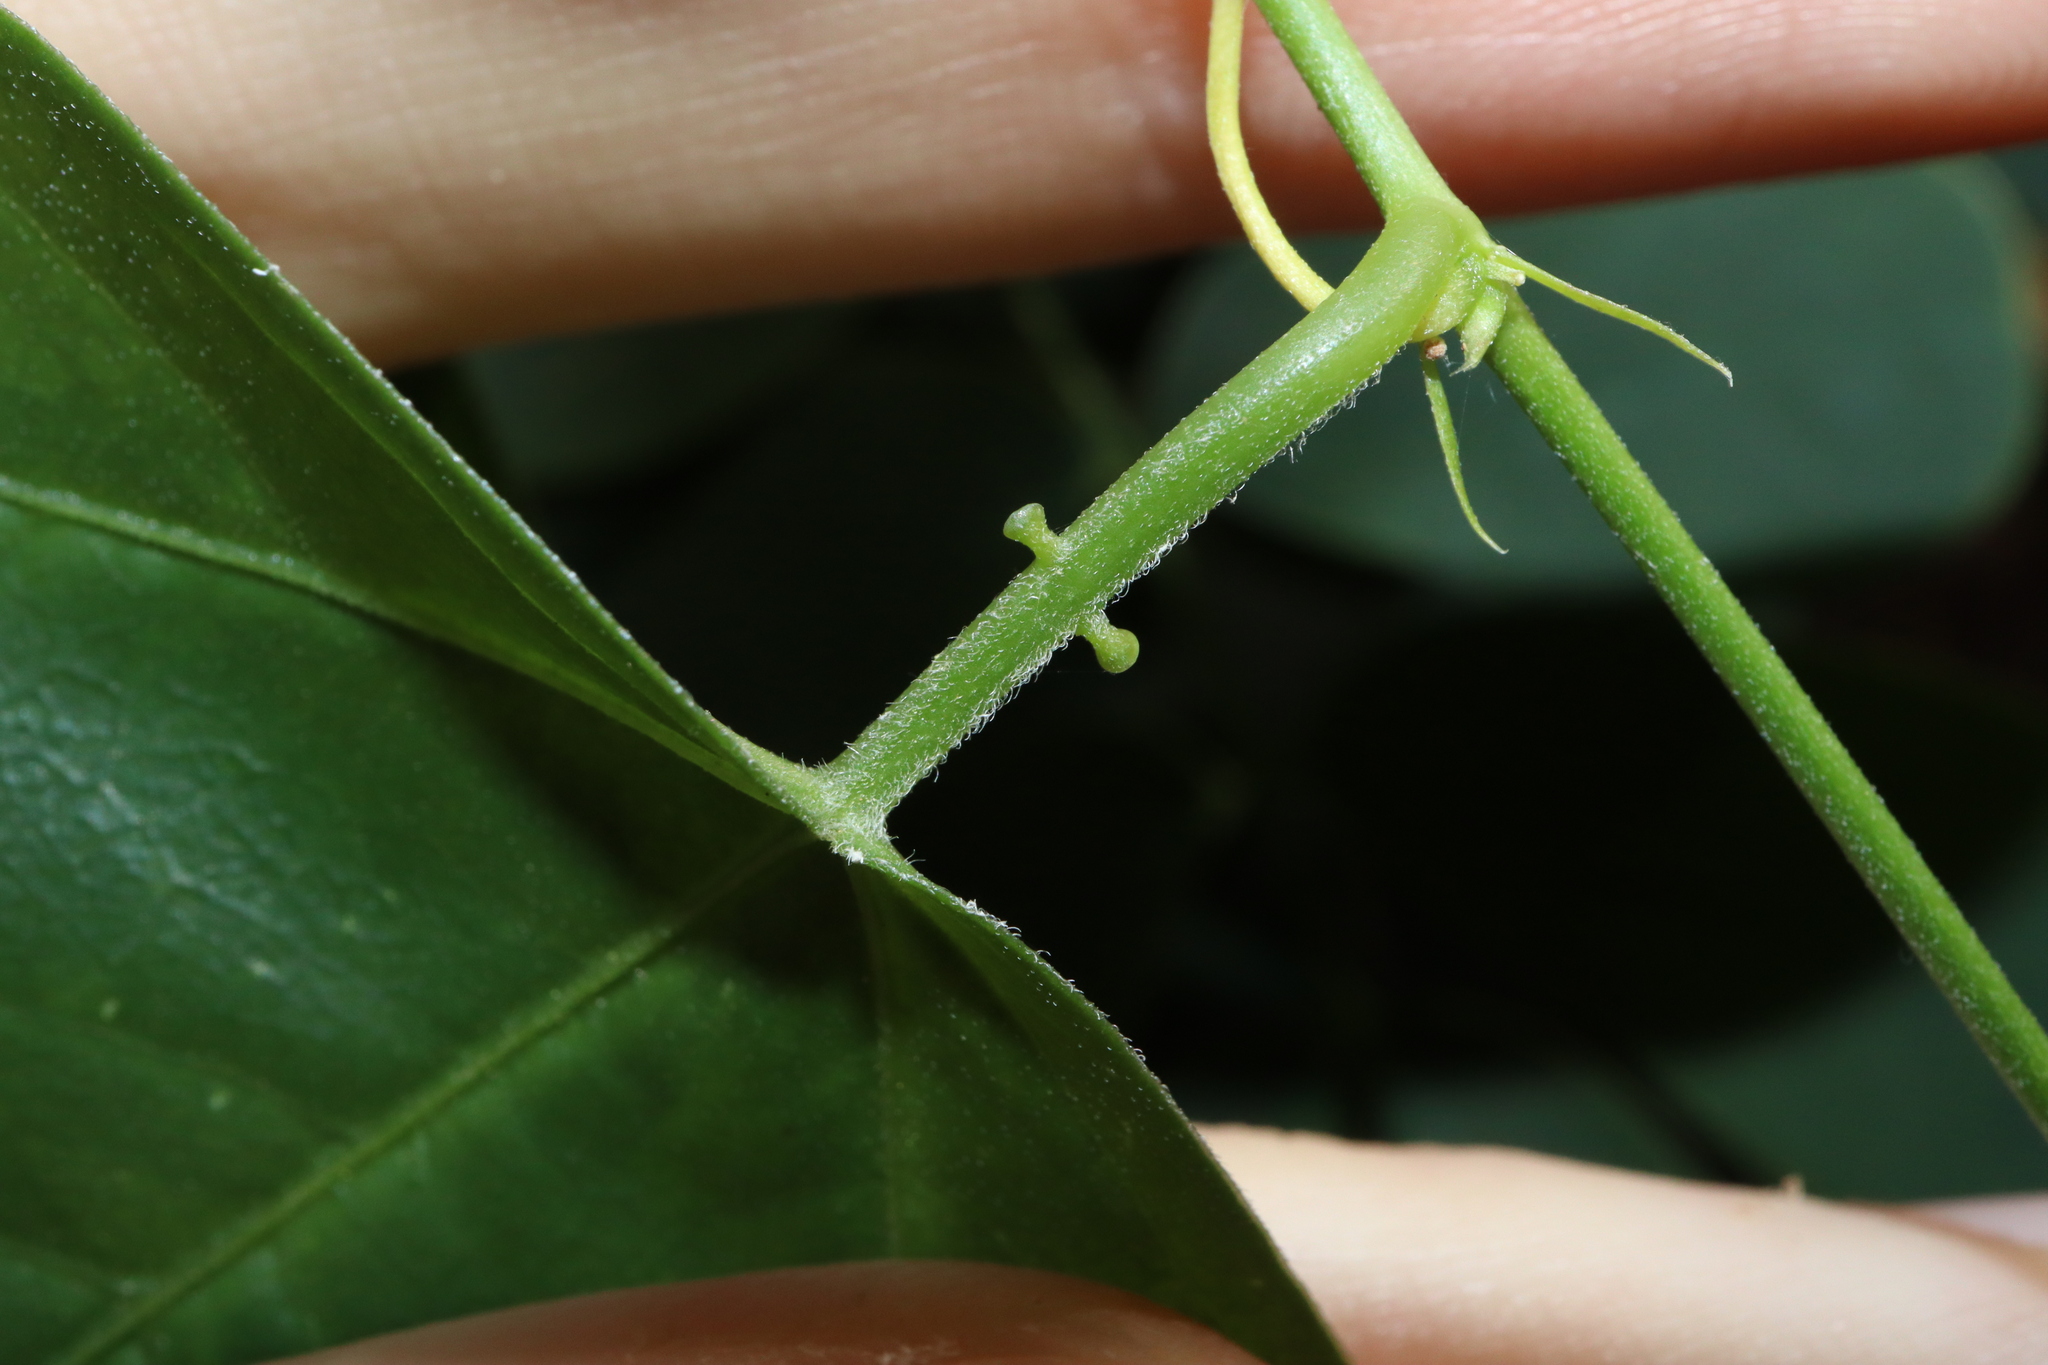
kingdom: Plantae
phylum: Tracheophyta
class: Magnoliopsida
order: Malpighiales
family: Passifloraceae
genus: Passiflora
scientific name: Passiflora suberosa
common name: Wild passionfruit
